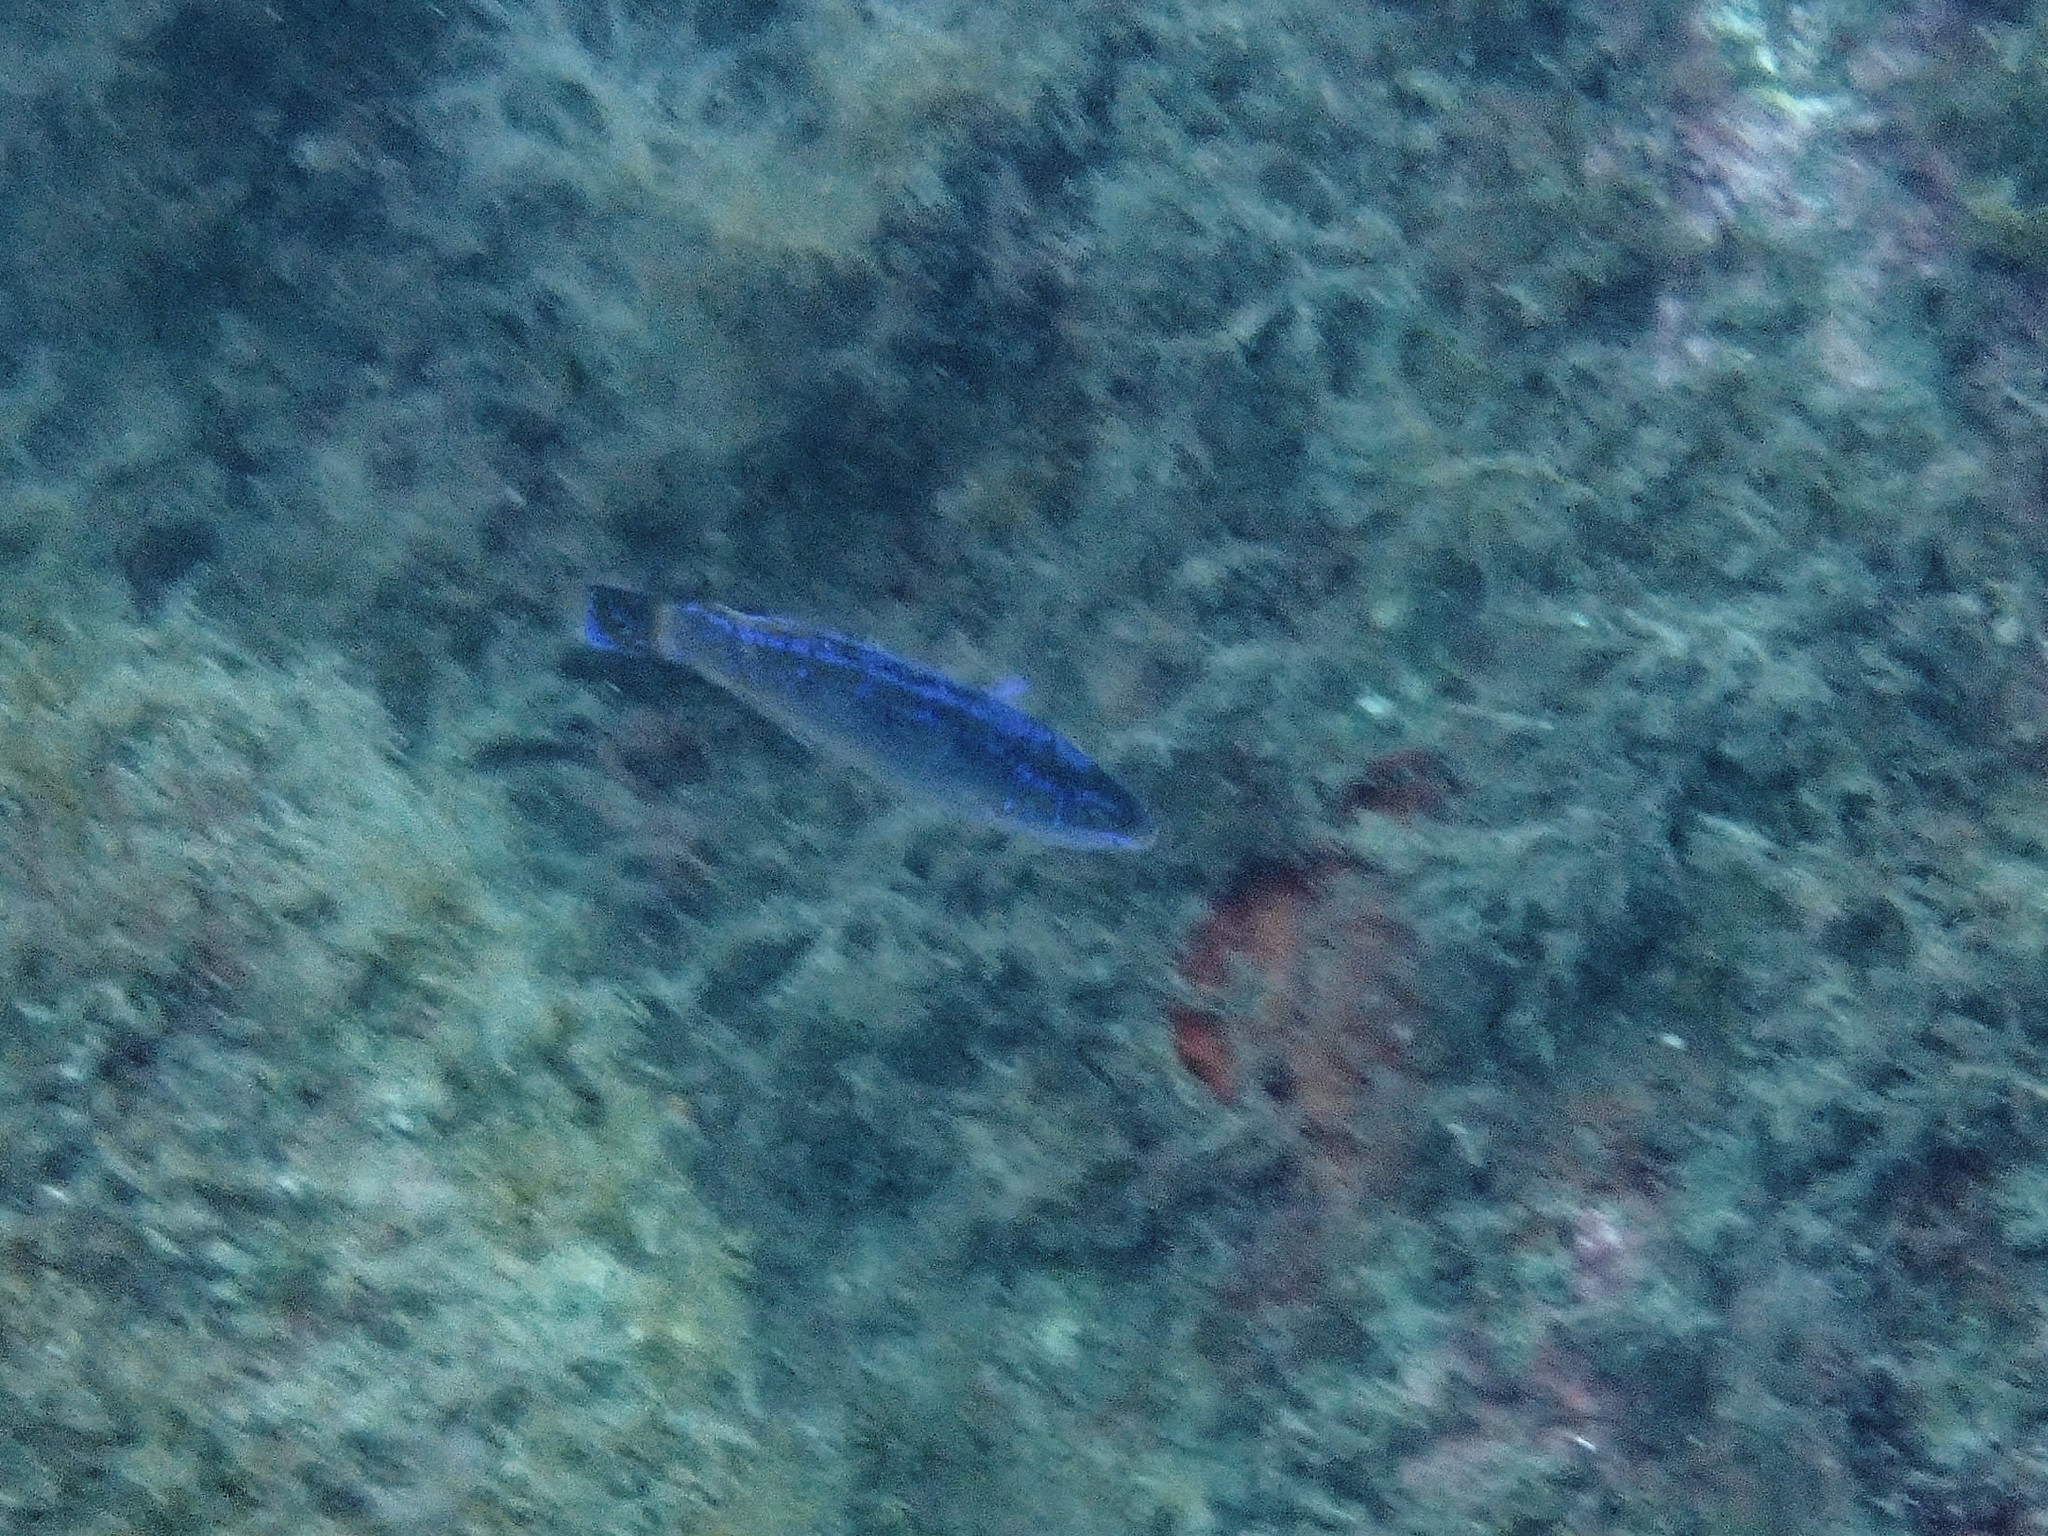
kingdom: Animalia
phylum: Chordata
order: Perciformes
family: Labridae
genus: Centrolabrus
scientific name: Centrolabrus melanocercus
